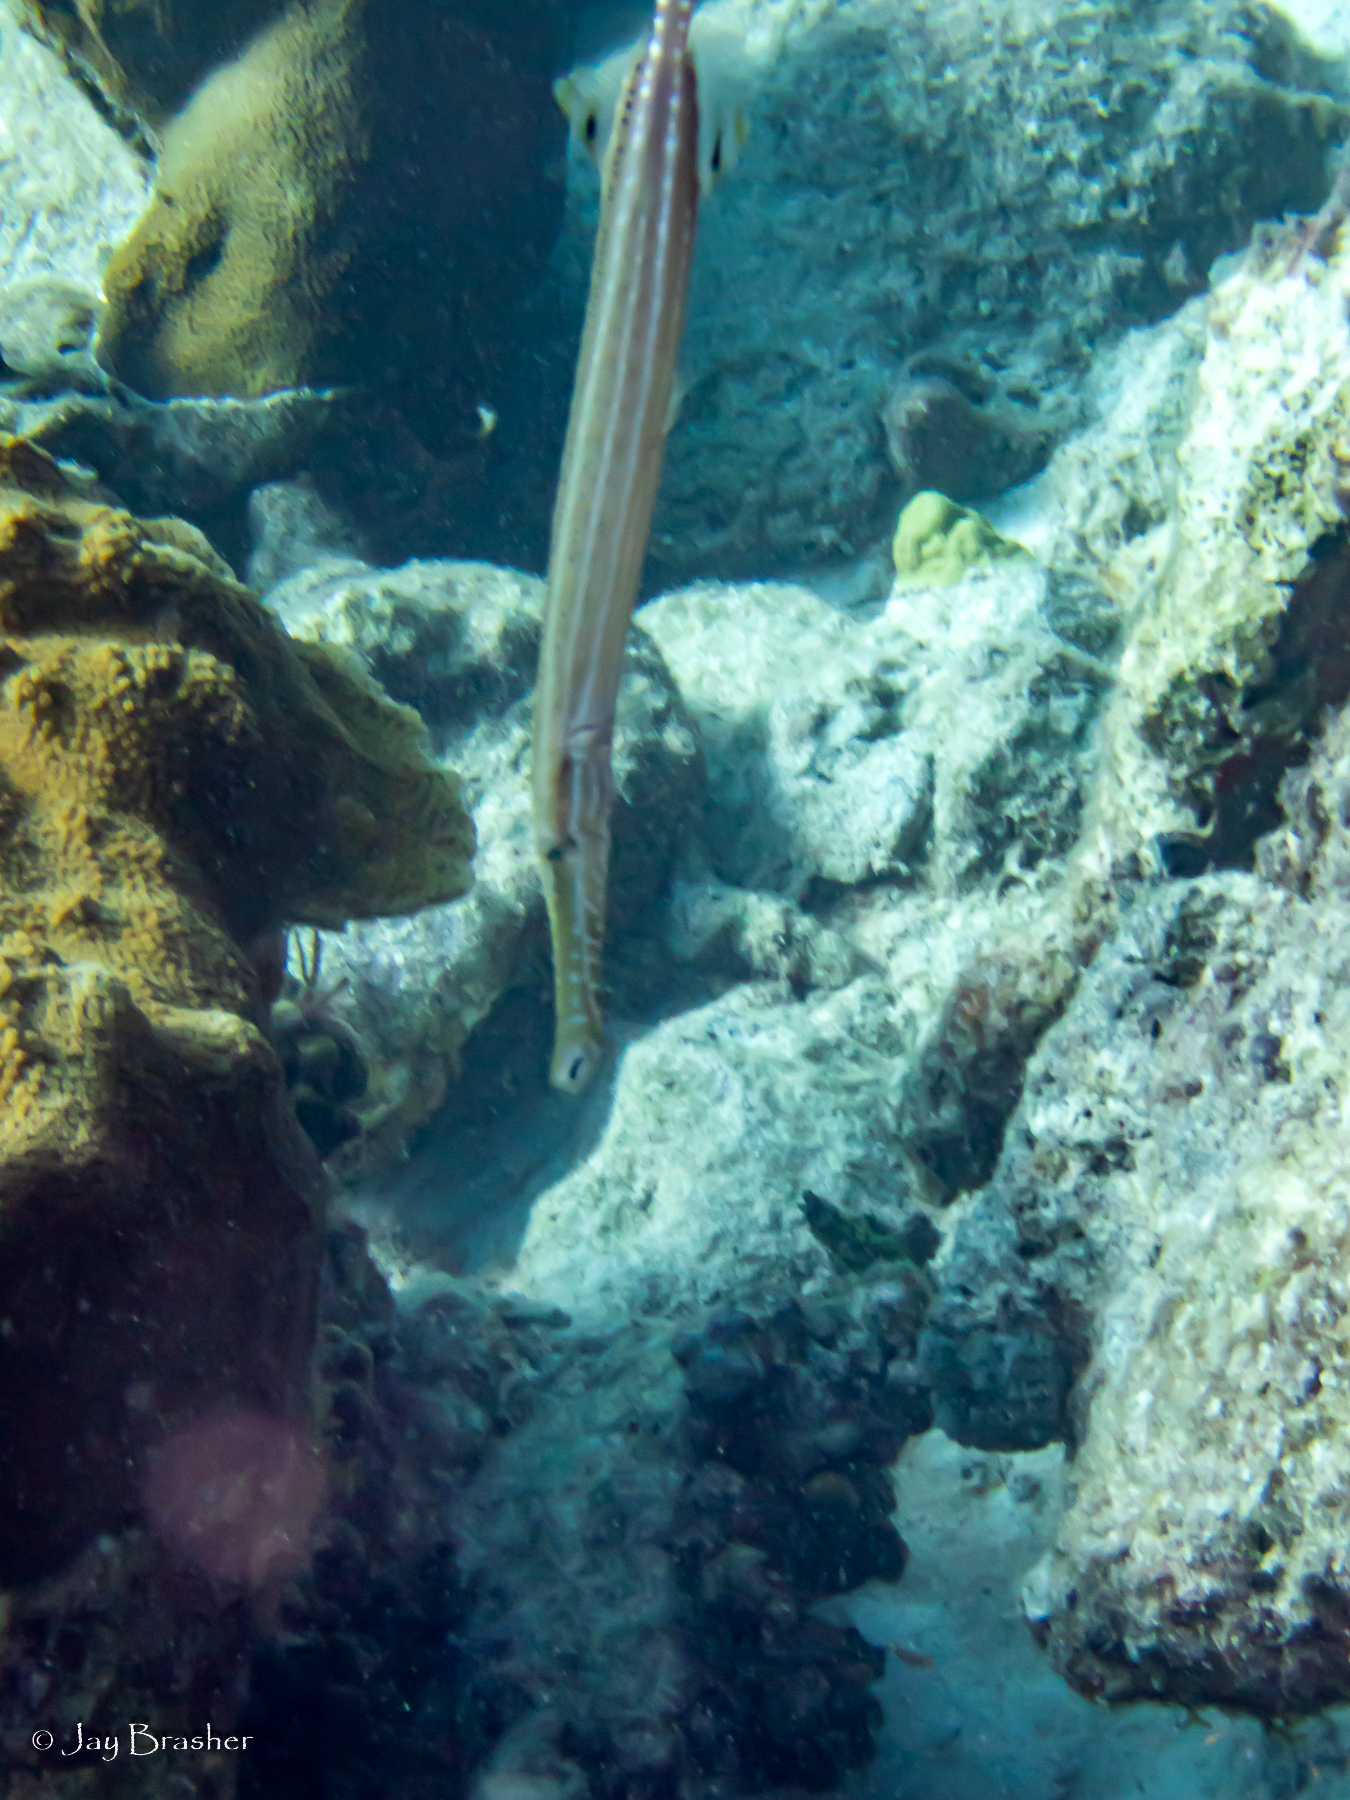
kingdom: Animalia
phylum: Chordata
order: Syngnathiformes
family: Aulostomidae
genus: Aulostomus
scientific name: Aulostomus maculatus
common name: West atlantic trumpetfish
